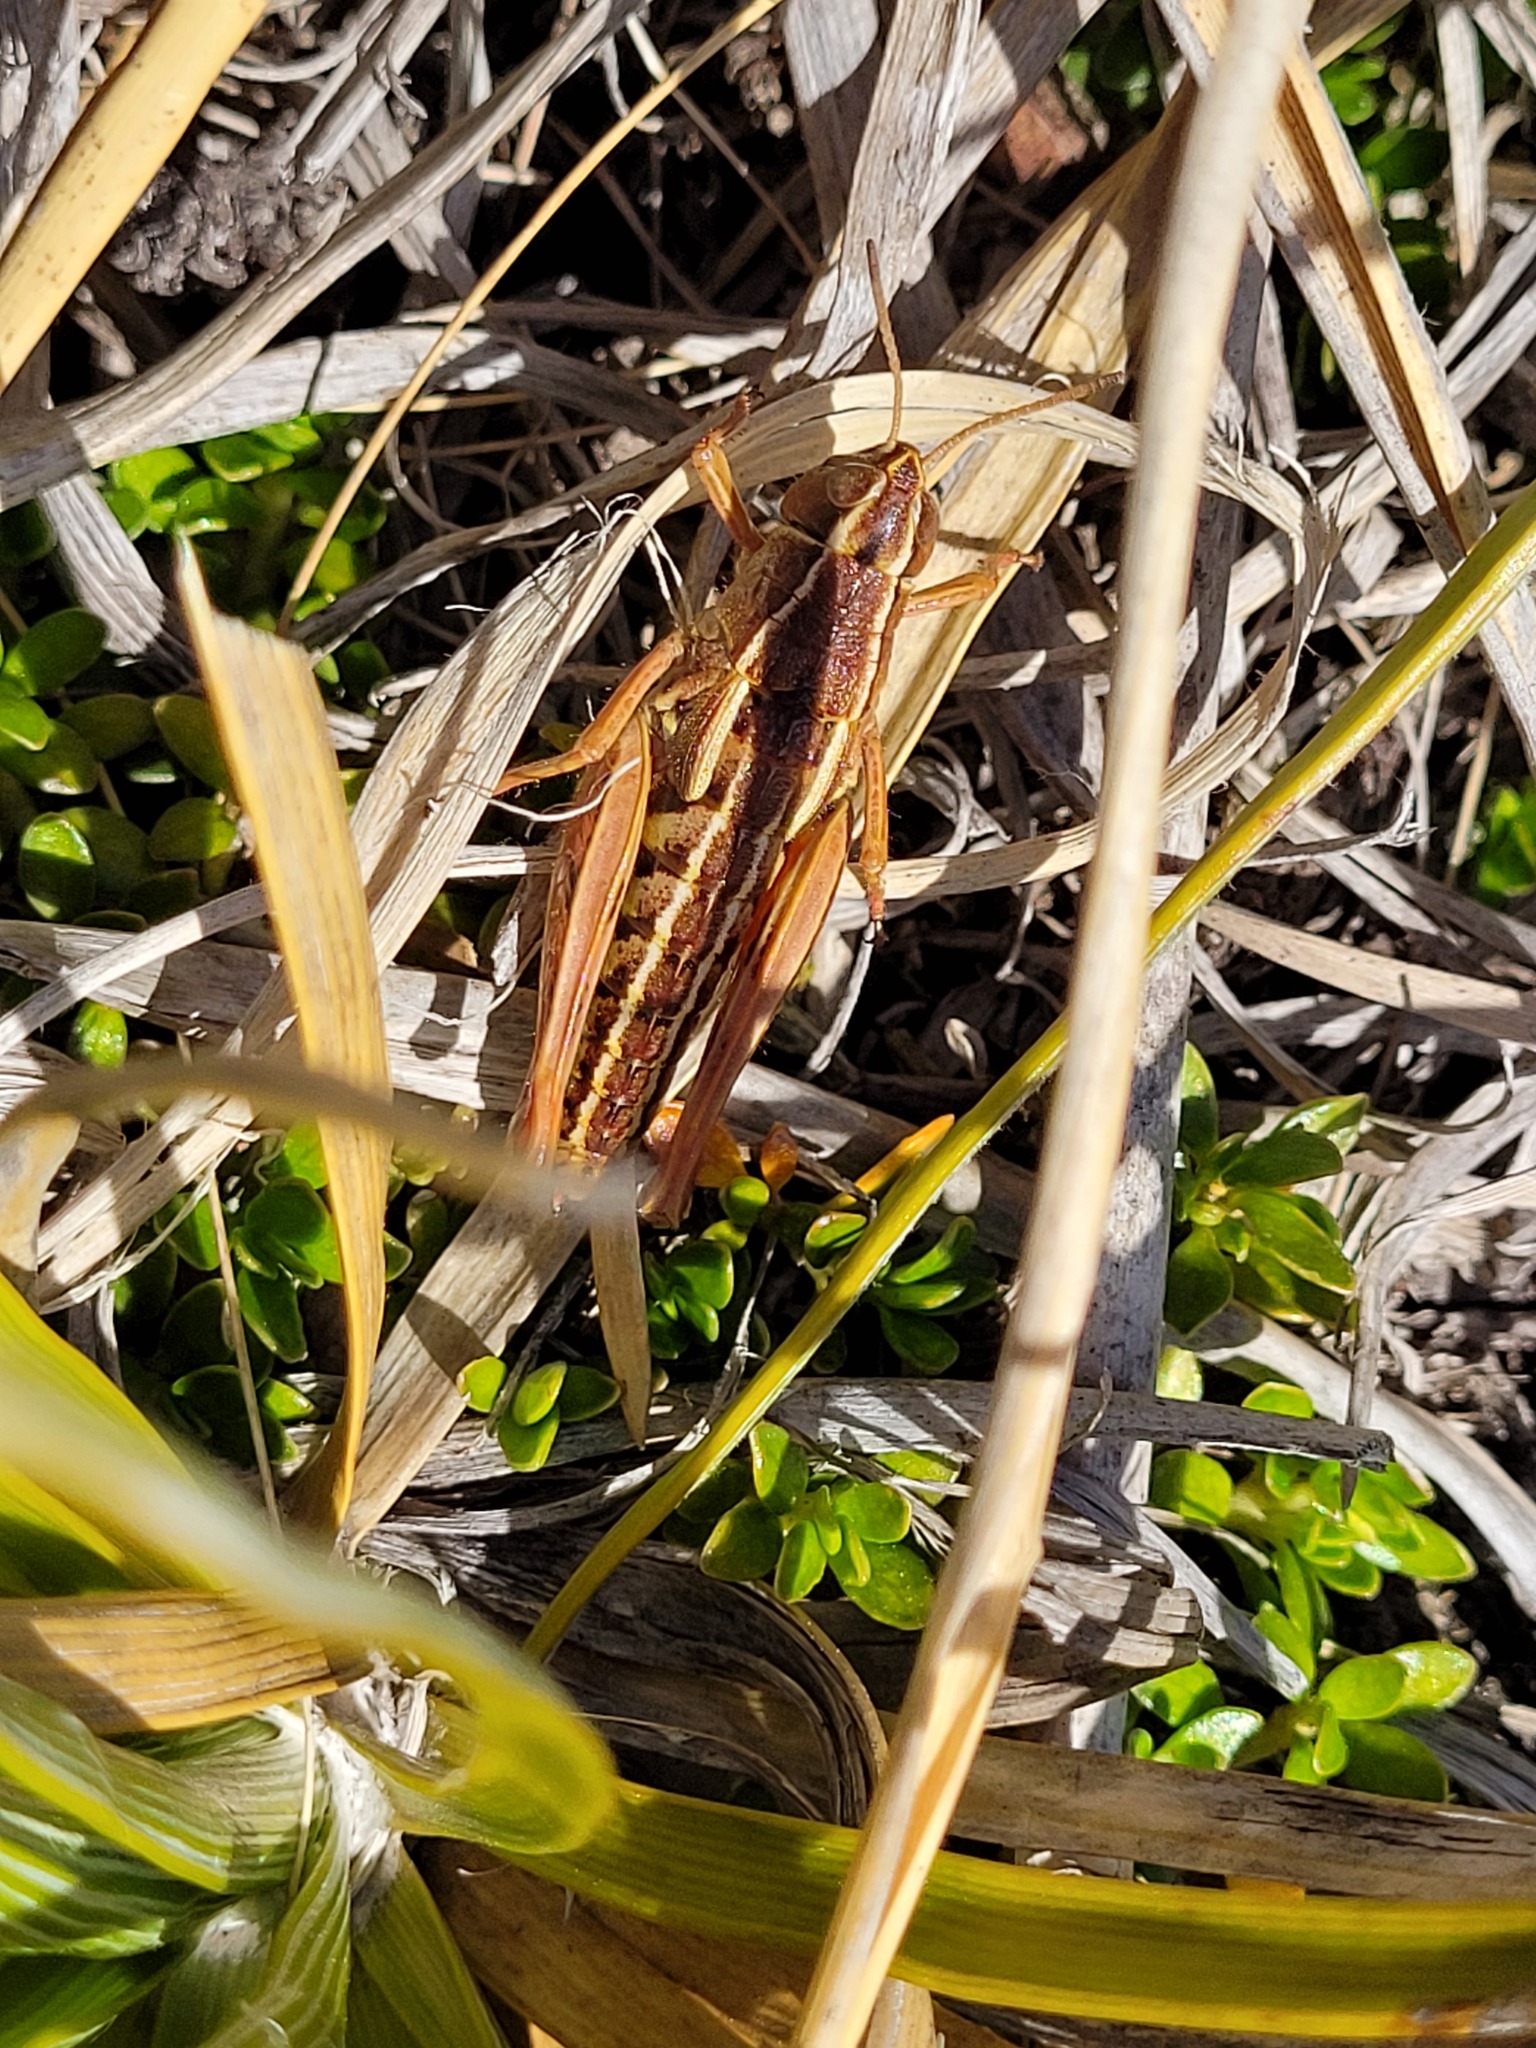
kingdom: Animalia
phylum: Arthropoda
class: Insecta
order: Orthoptera
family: Acrididae
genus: Sigaus
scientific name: Sigaus australis
